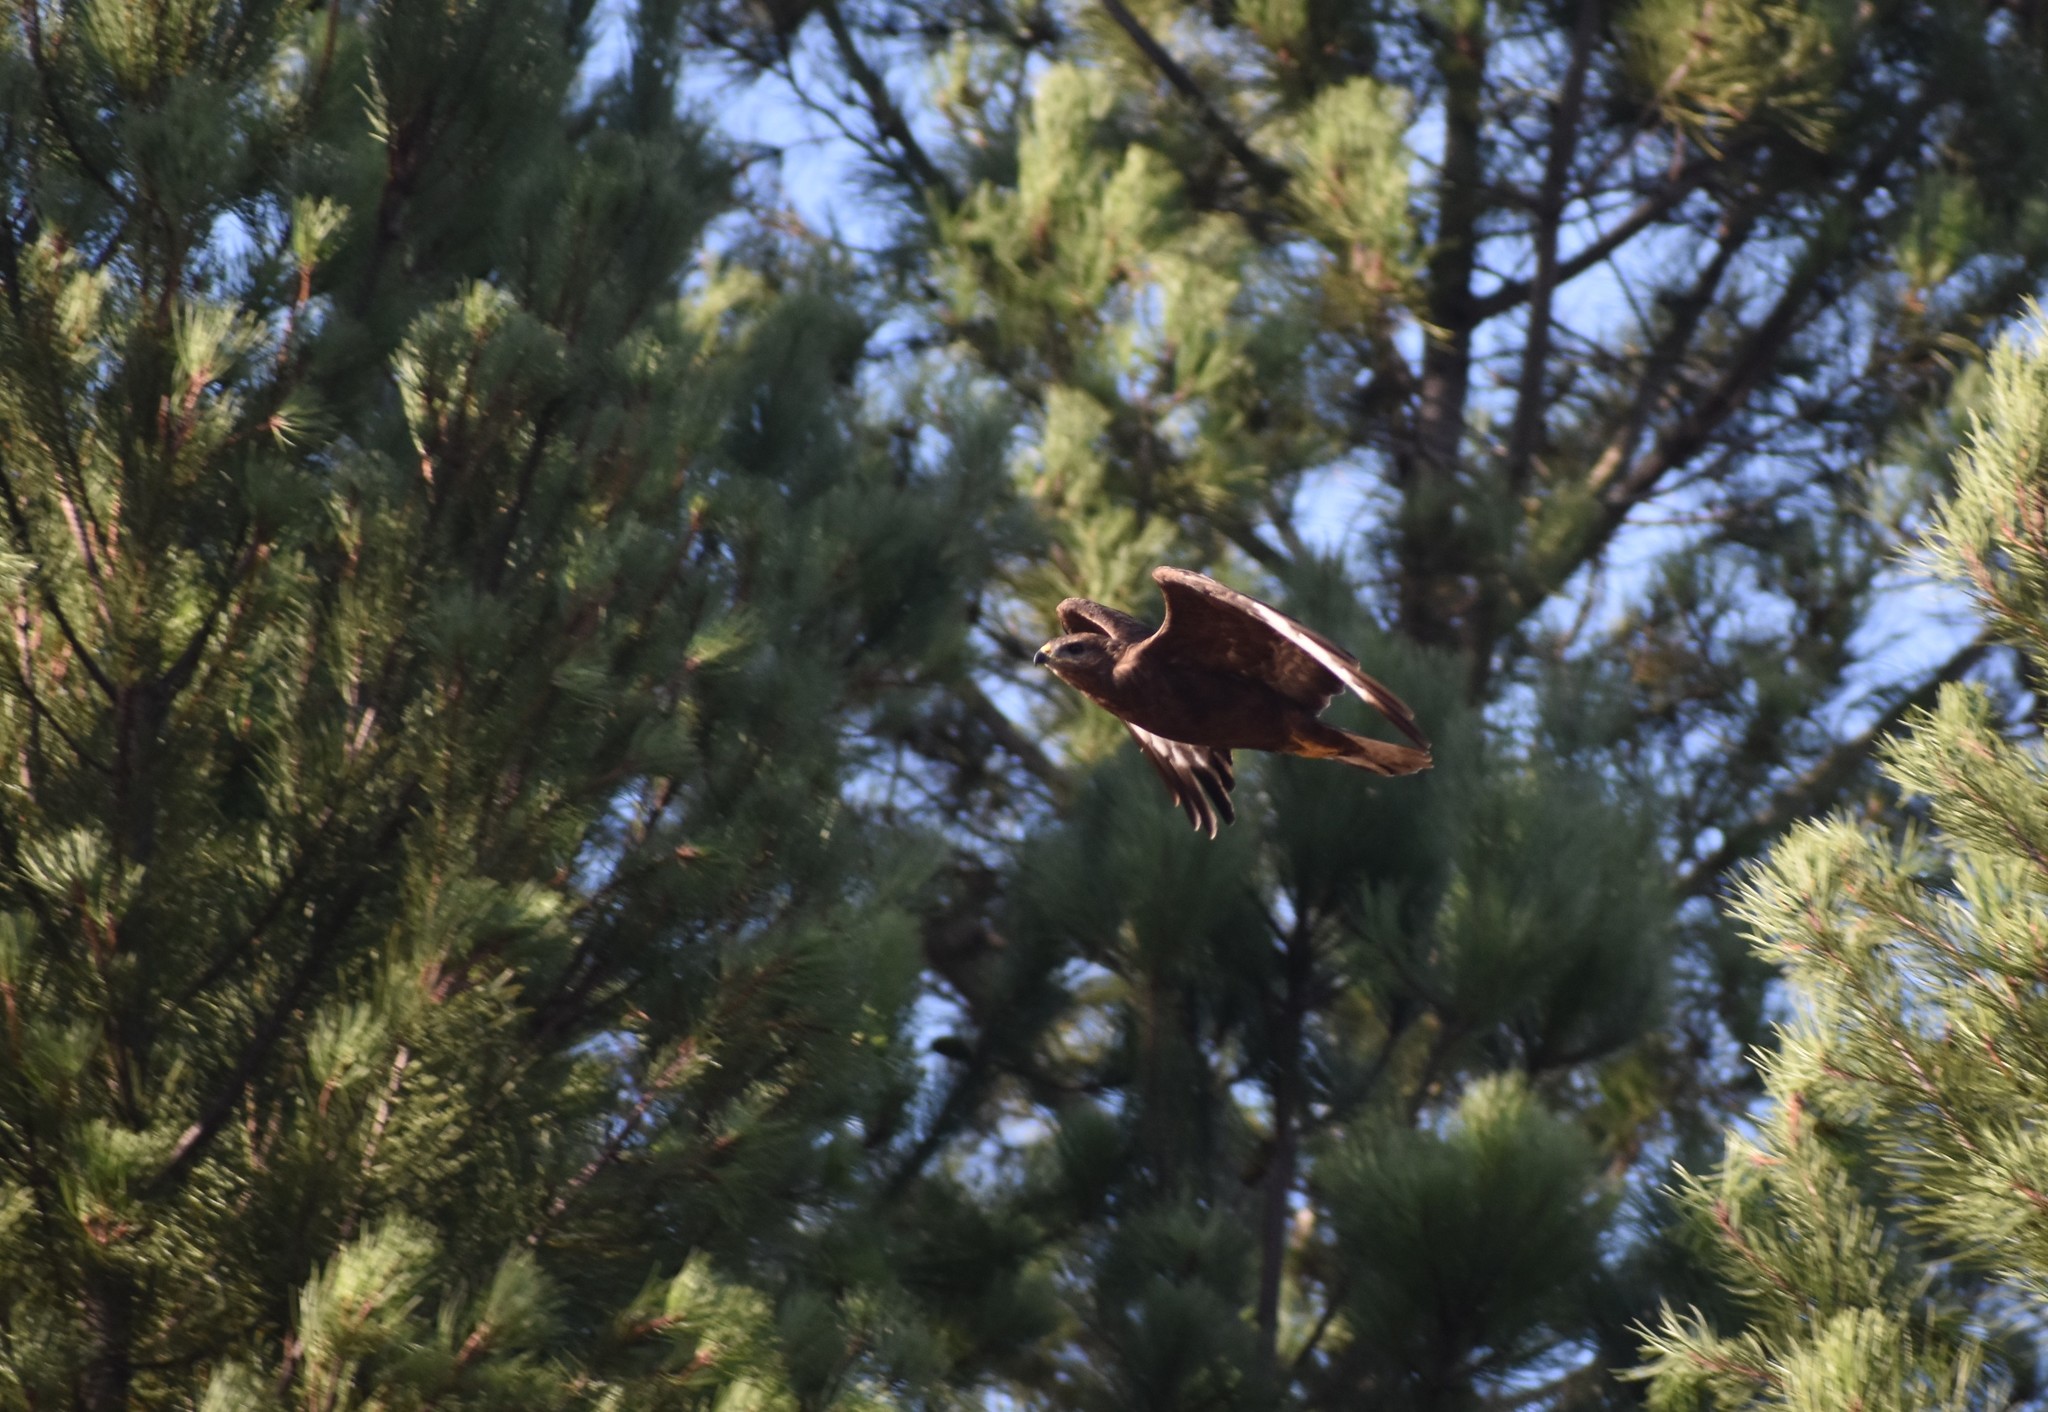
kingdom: Animalia
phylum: Chordata
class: Aves
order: Accipitriformes
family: Accipitridae
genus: Buteo
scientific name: Buteo buteo
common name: Common buzzard
